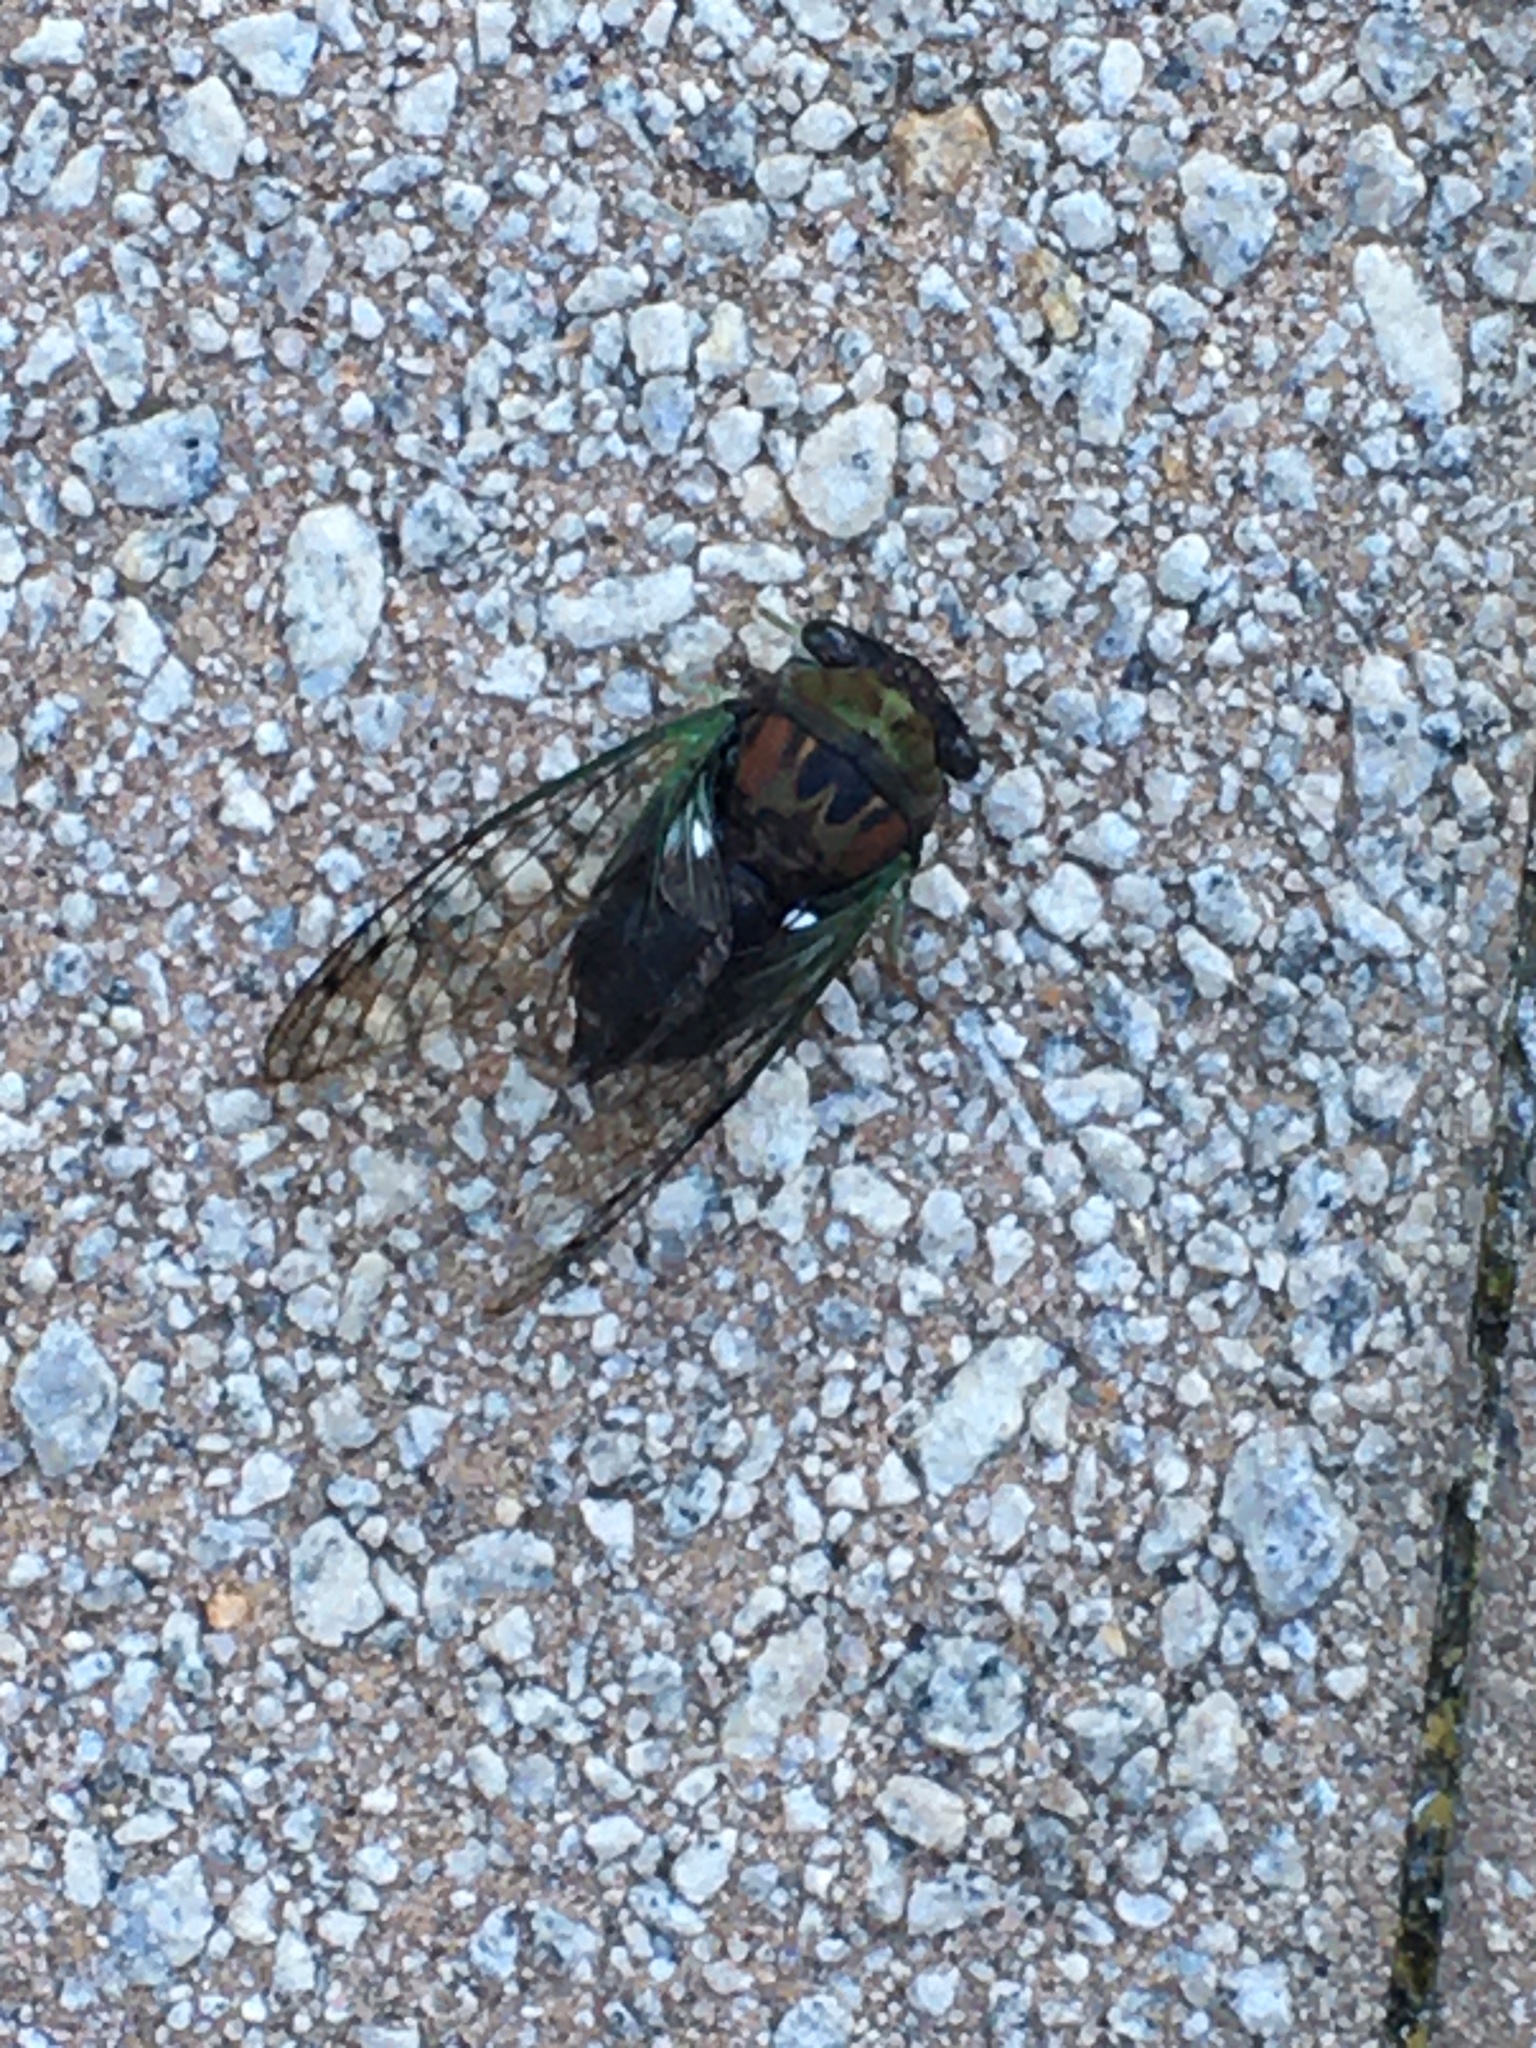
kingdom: Animalia
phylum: Arthropoda
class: Insecta
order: Hemiptera
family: Cicadidae
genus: Neotibicen
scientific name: Neotibicen tibicen
